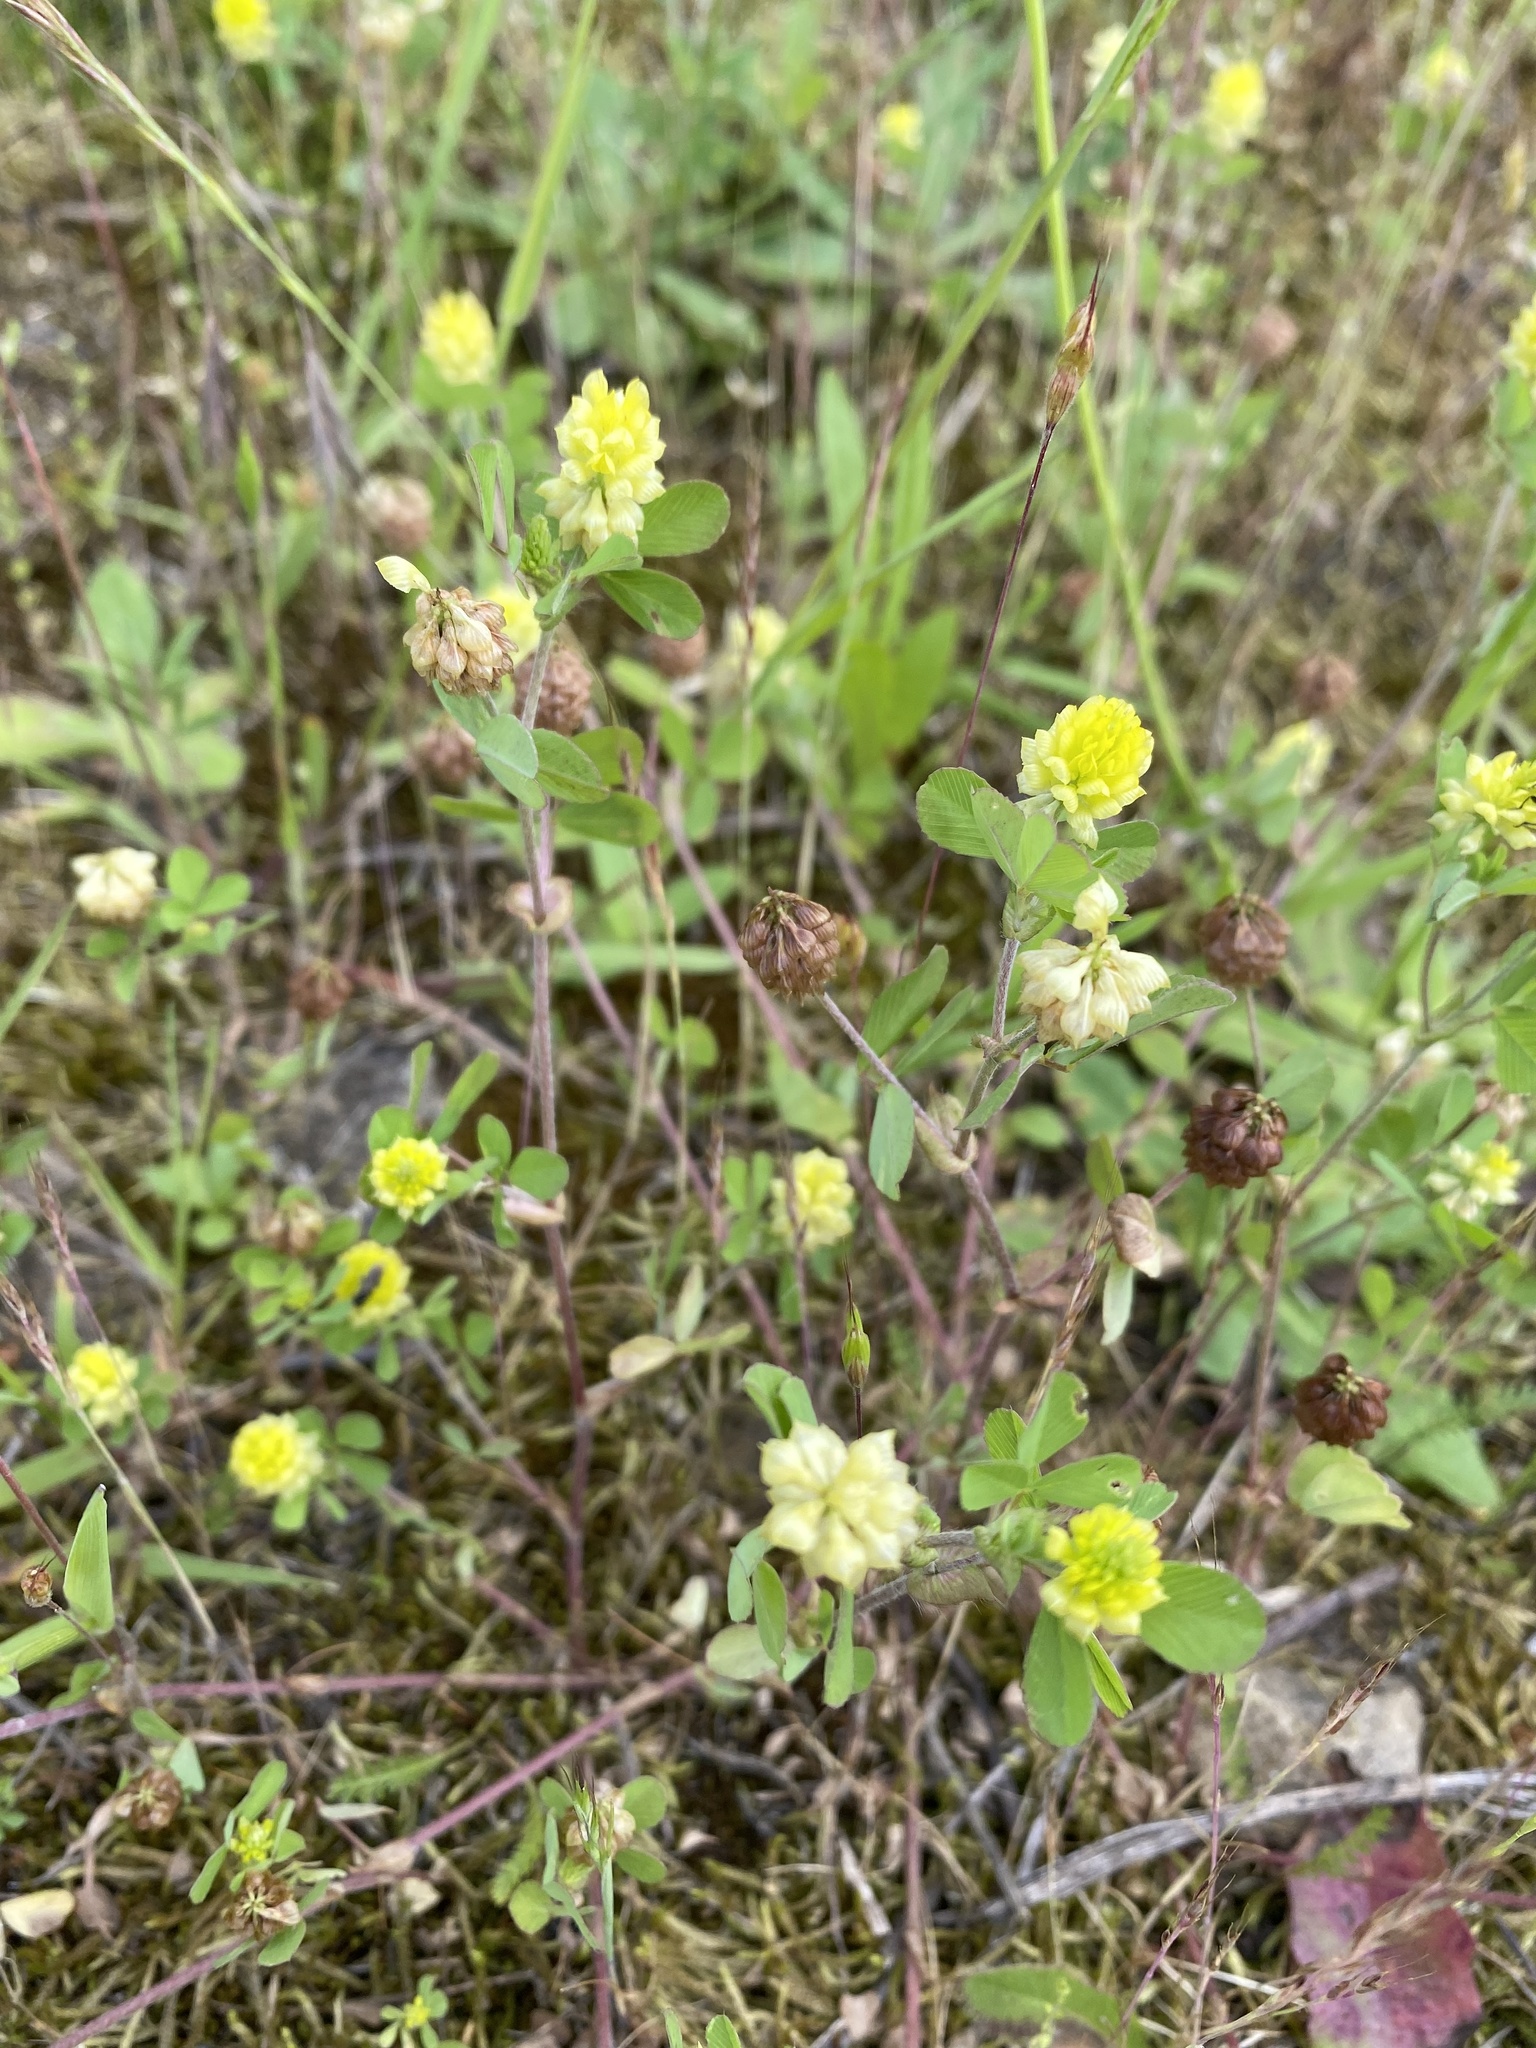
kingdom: Plantae
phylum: Tracheophyta
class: Magnoliopsida
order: Fabales
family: Fabaceae
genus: Trifolium
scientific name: Trifolium campestre
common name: Field clover
